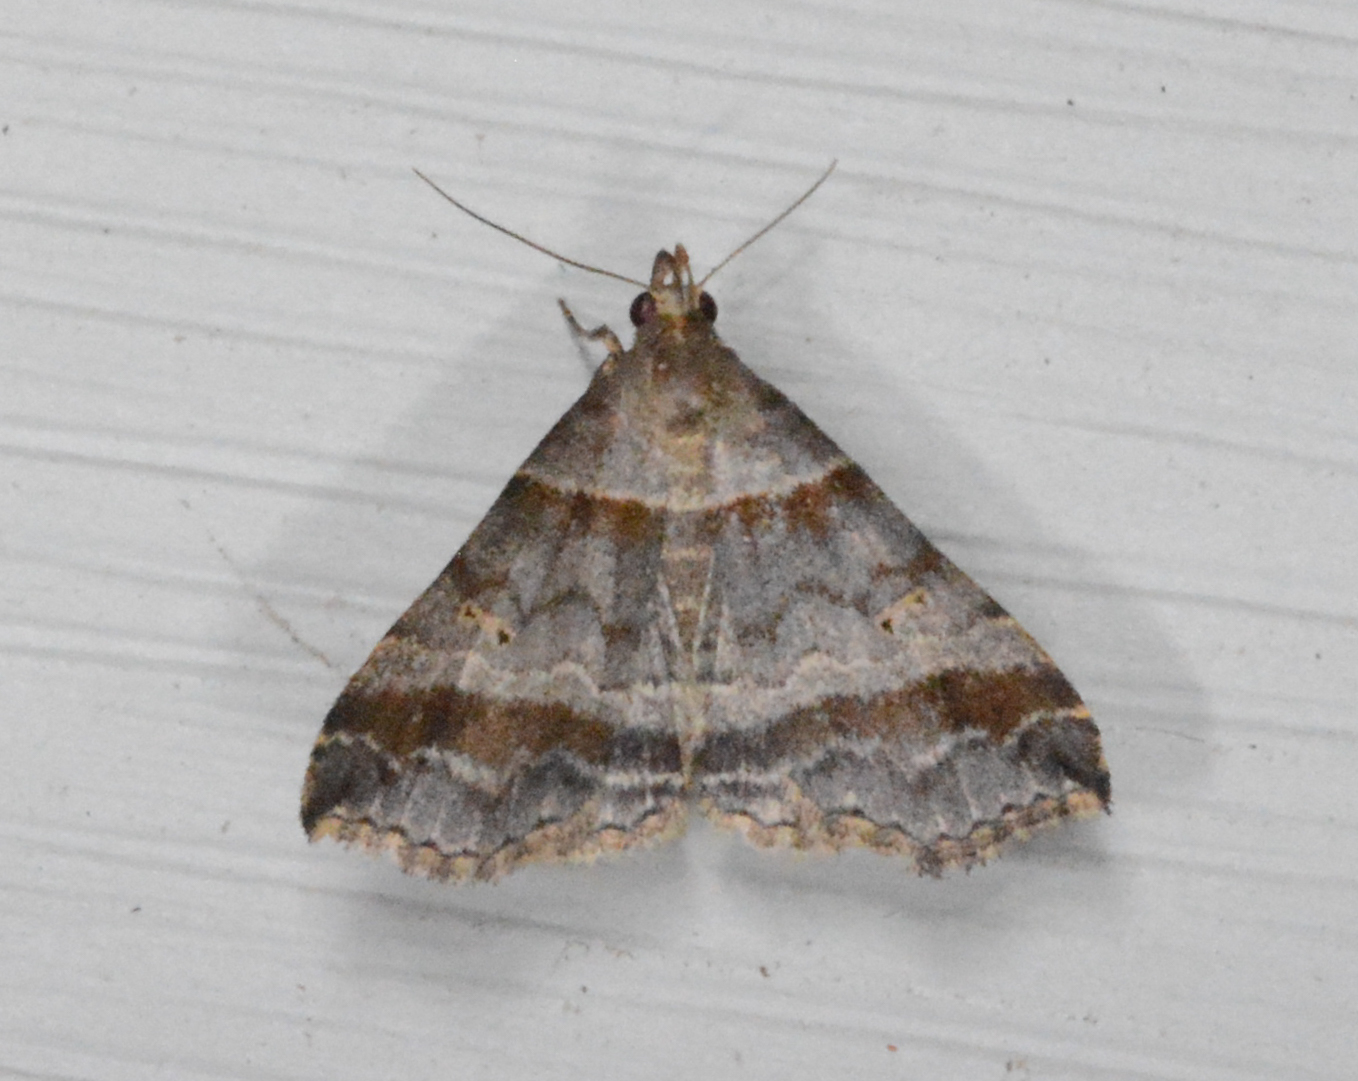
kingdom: Animalia
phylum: Arthropoda
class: Insecta
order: Lepidoptera
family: Erebidae
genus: Phaeolita
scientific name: Phaeolita pyramusalis
